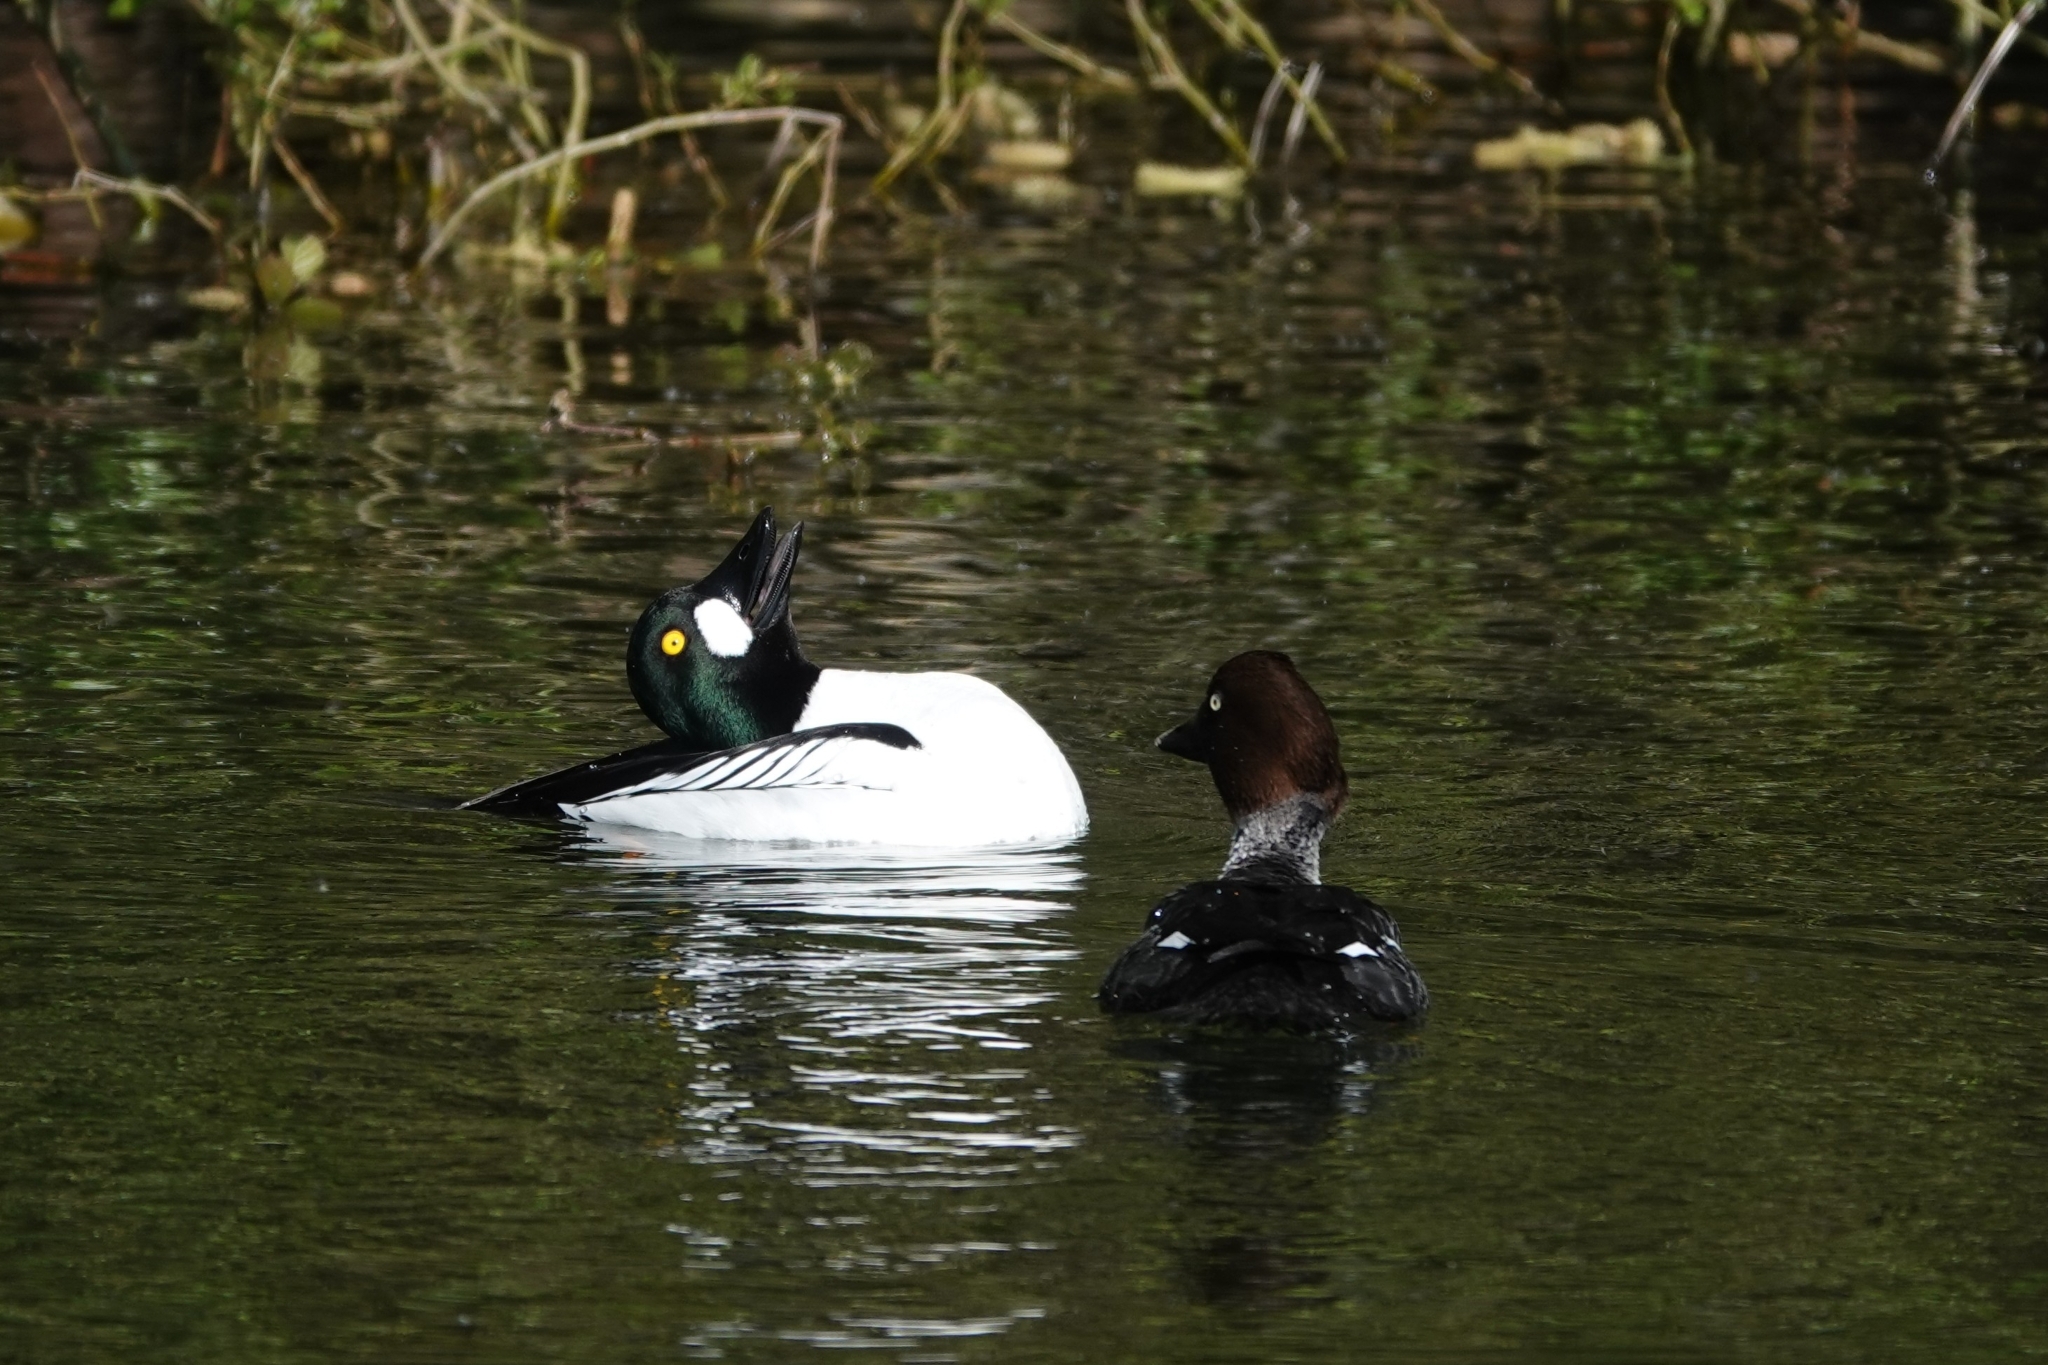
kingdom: Animalia
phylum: Chordata
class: Aves
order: Anseriformes
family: Anatidae
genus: Bucephala
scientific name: Bucephala clangula
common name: Common goldeneye
